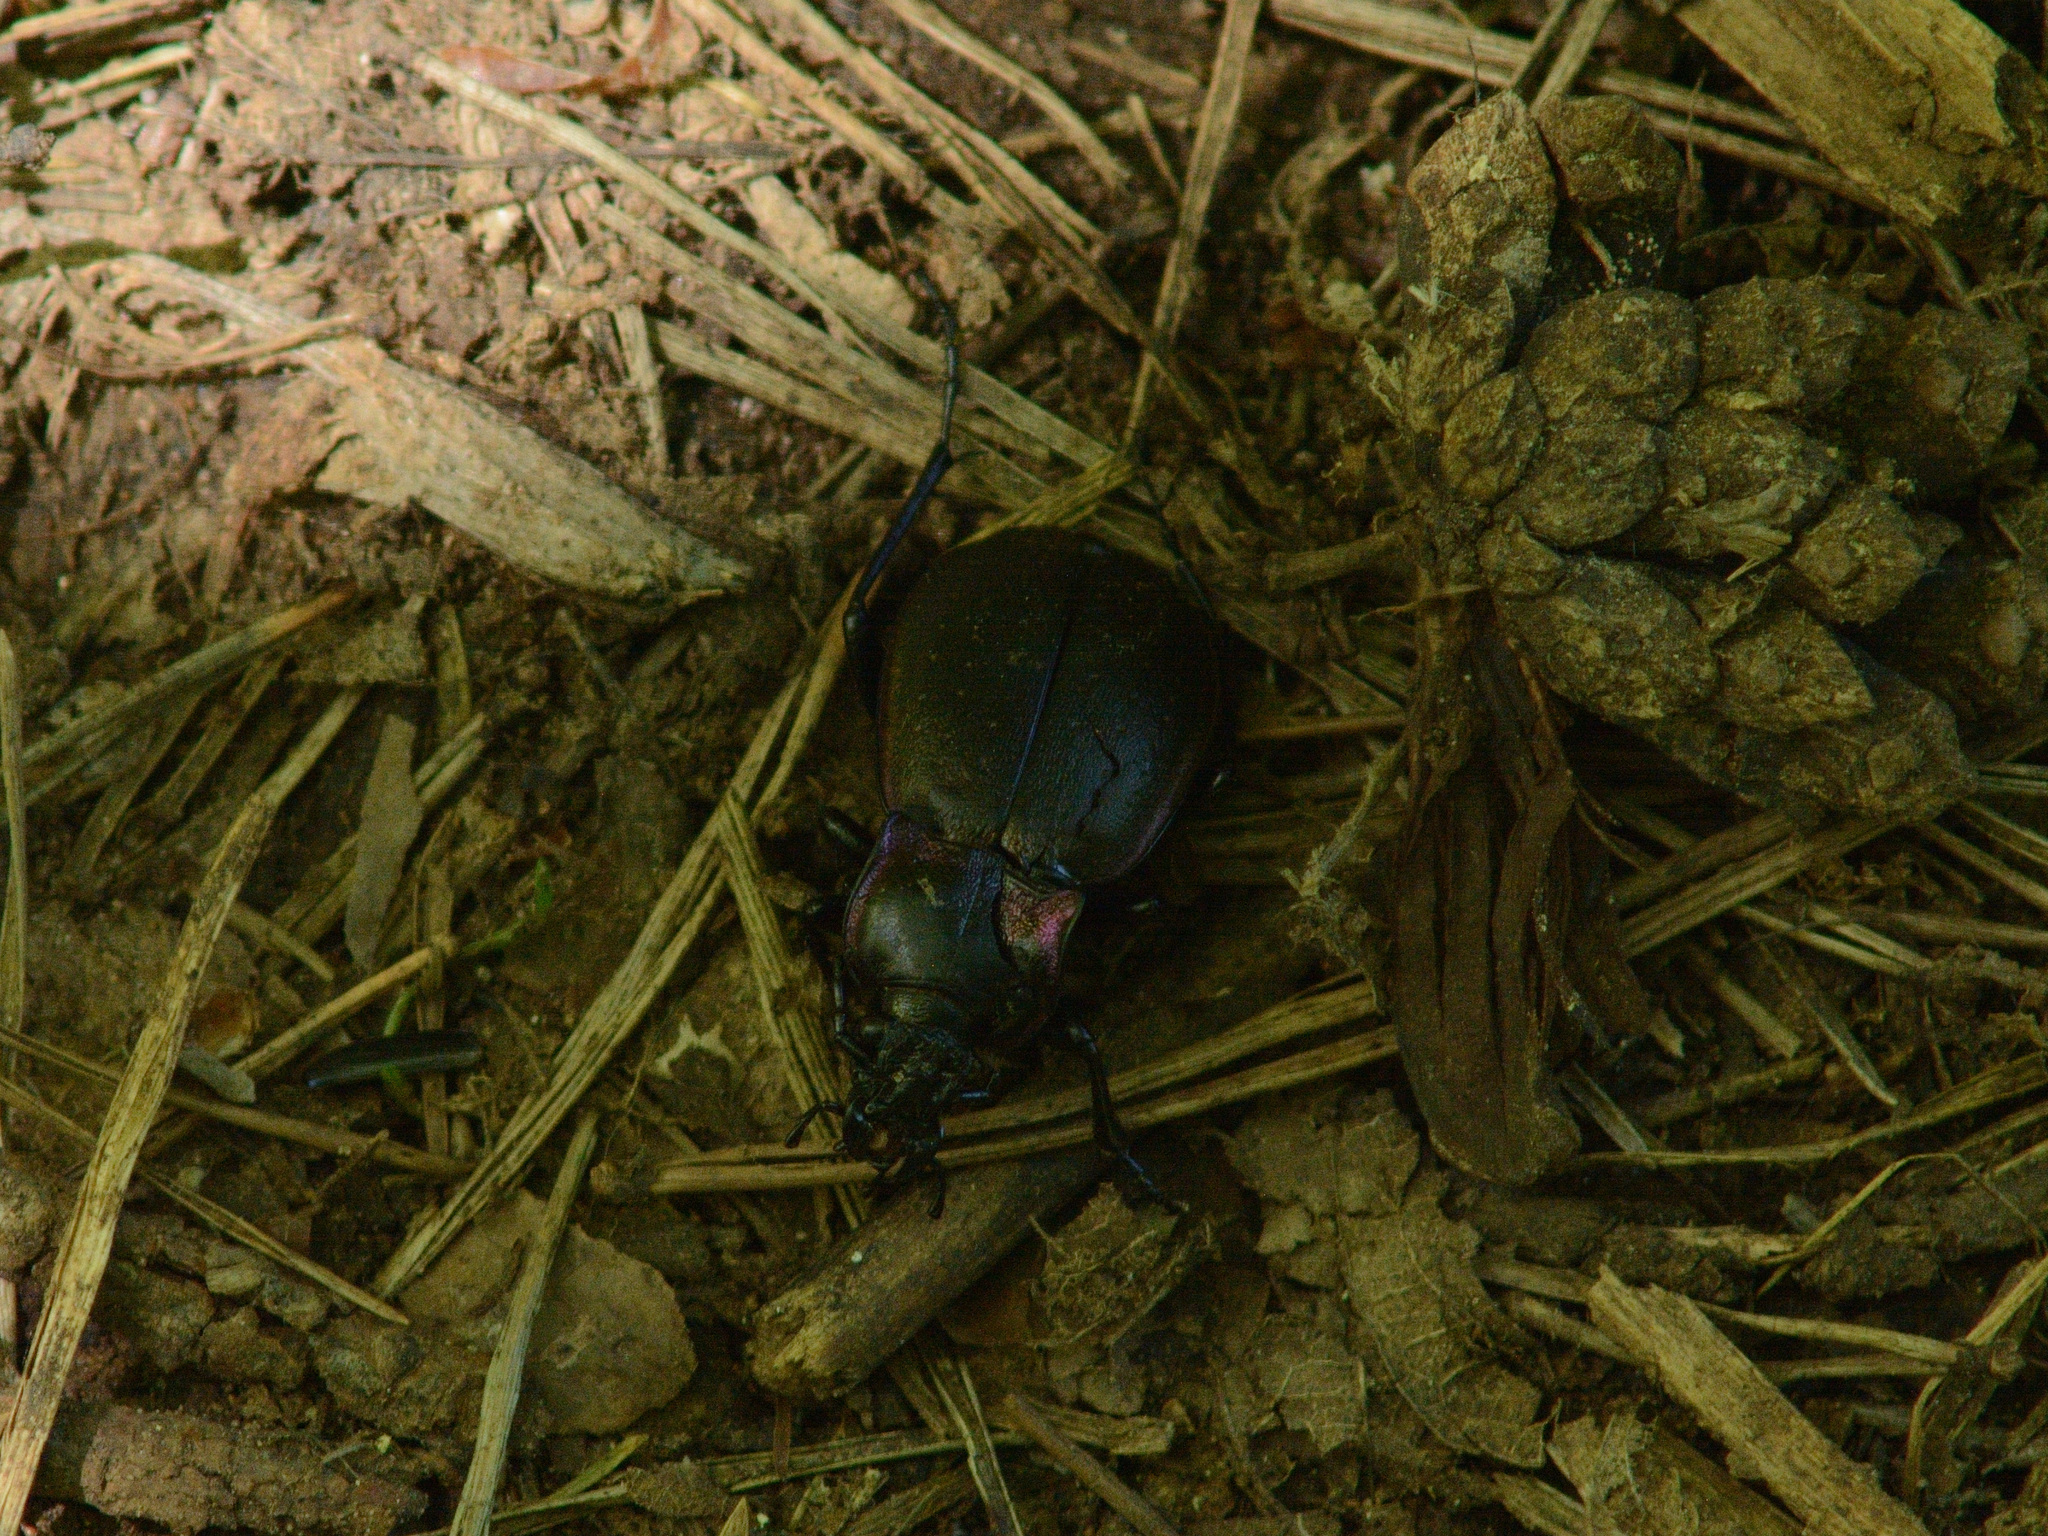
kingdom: Animalia
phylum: Arthropoda
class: Insecta
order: Coleoptera
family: Carabidae
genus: Carabus
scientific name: Carabus nemoralis
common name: European ground beetle
